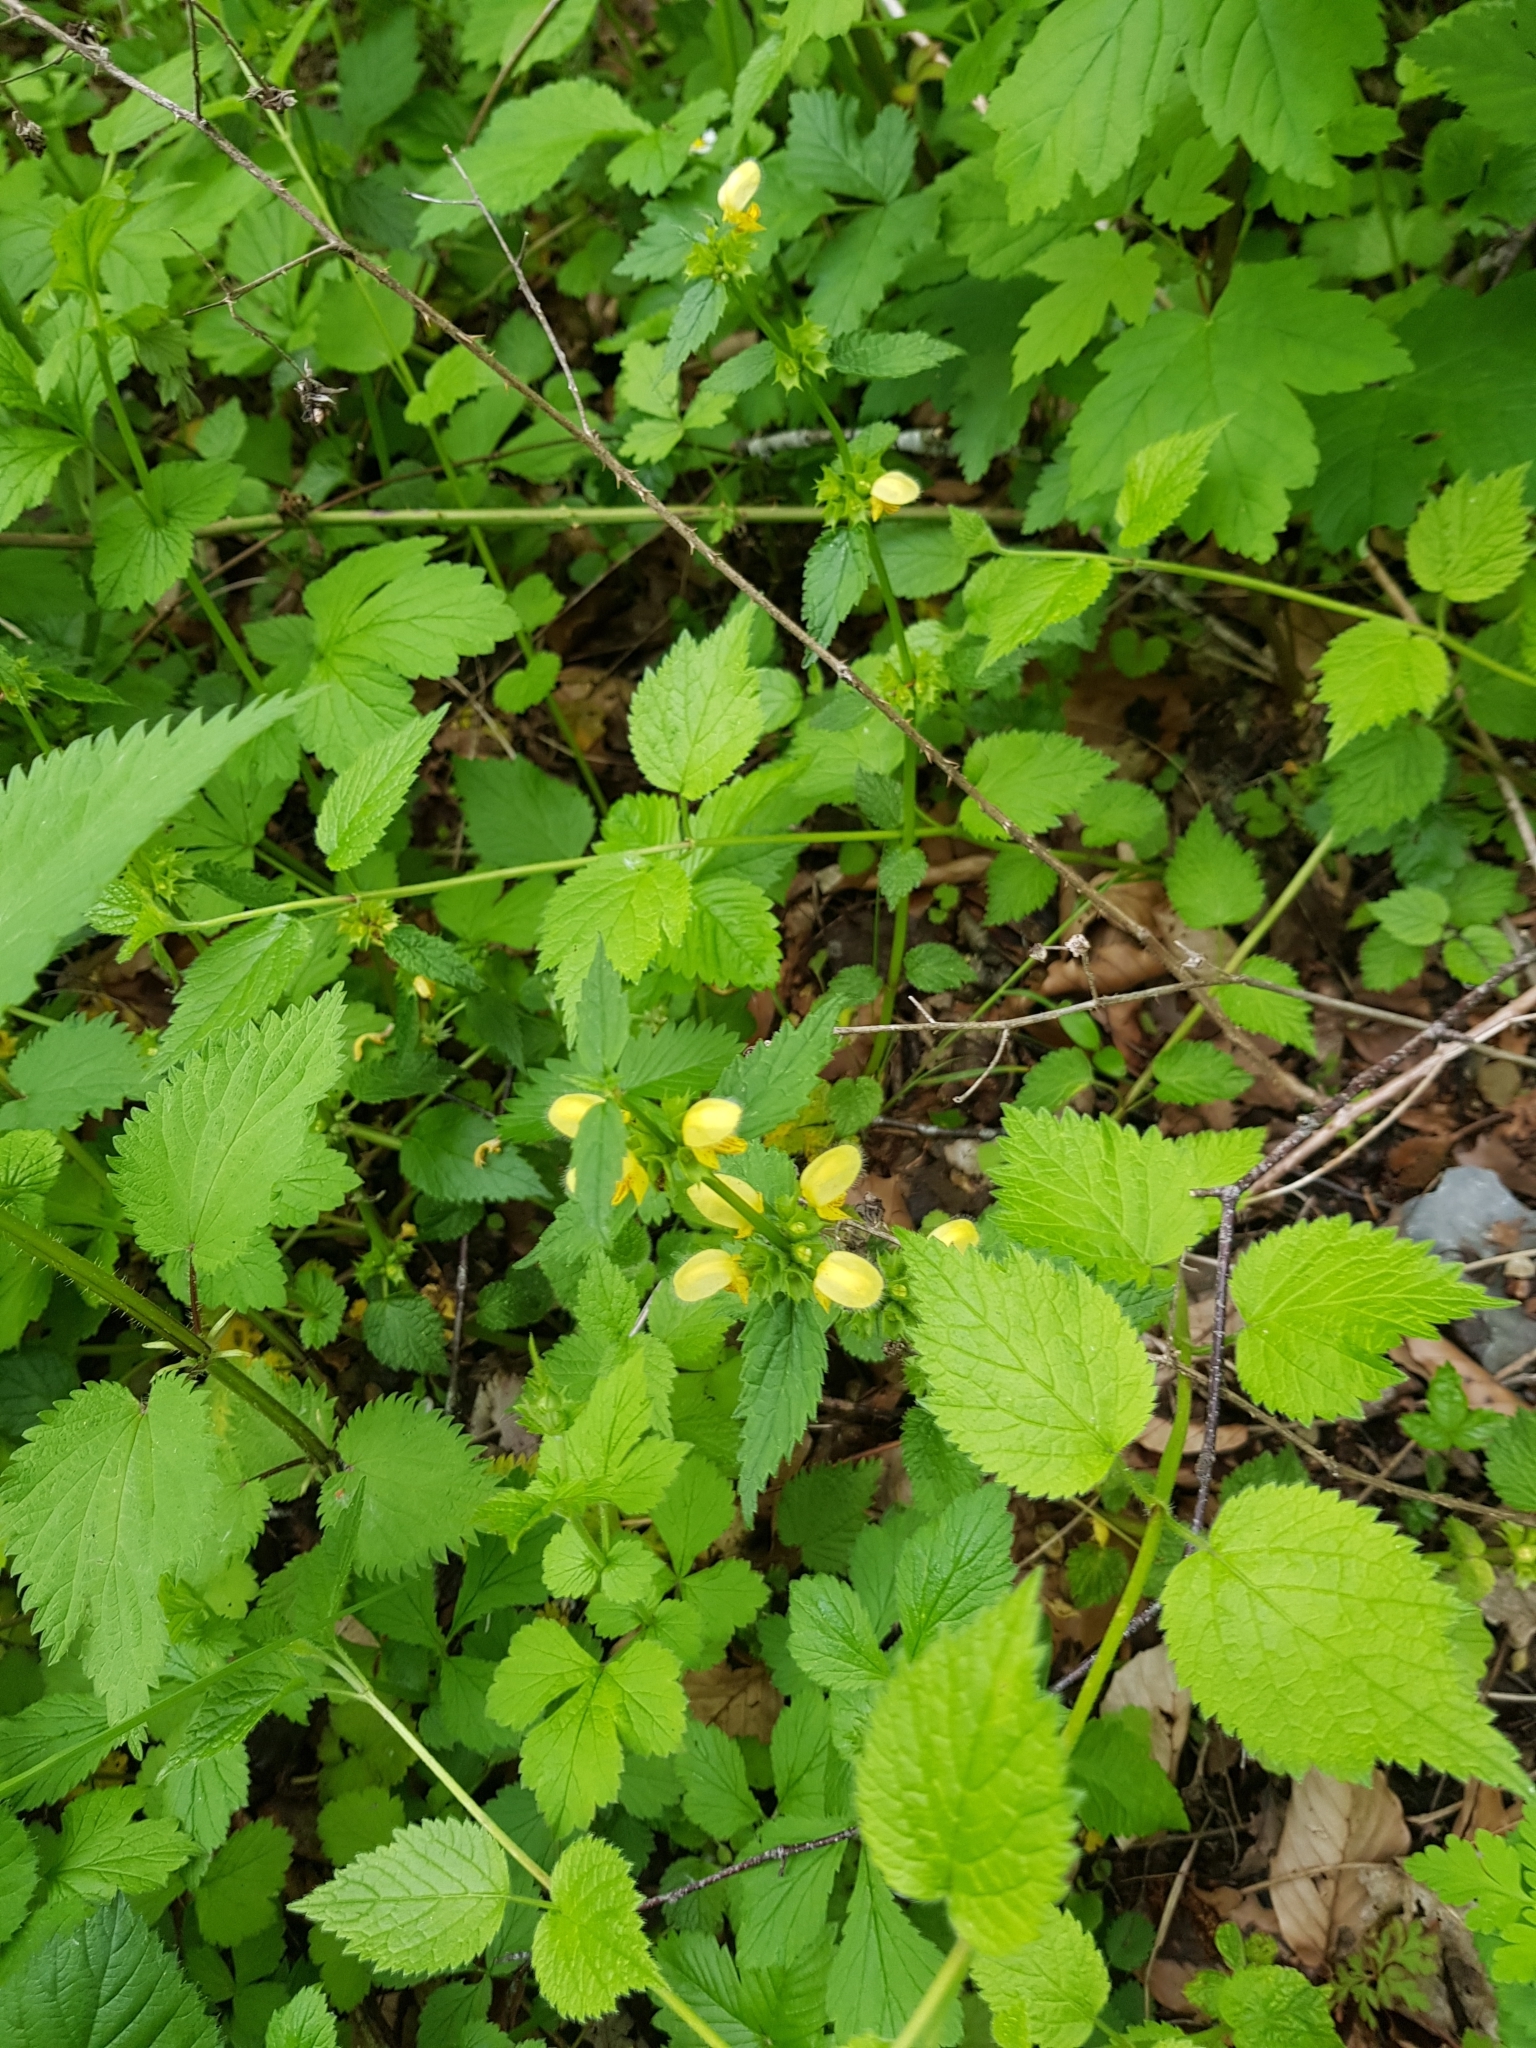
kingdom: Plantae
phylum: Tracheophyta
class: Magnoliopsida
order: Lamiales
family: Lamiaceae
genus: Lamium
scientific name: Lamium galeobdolon
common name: Yellow archangel
